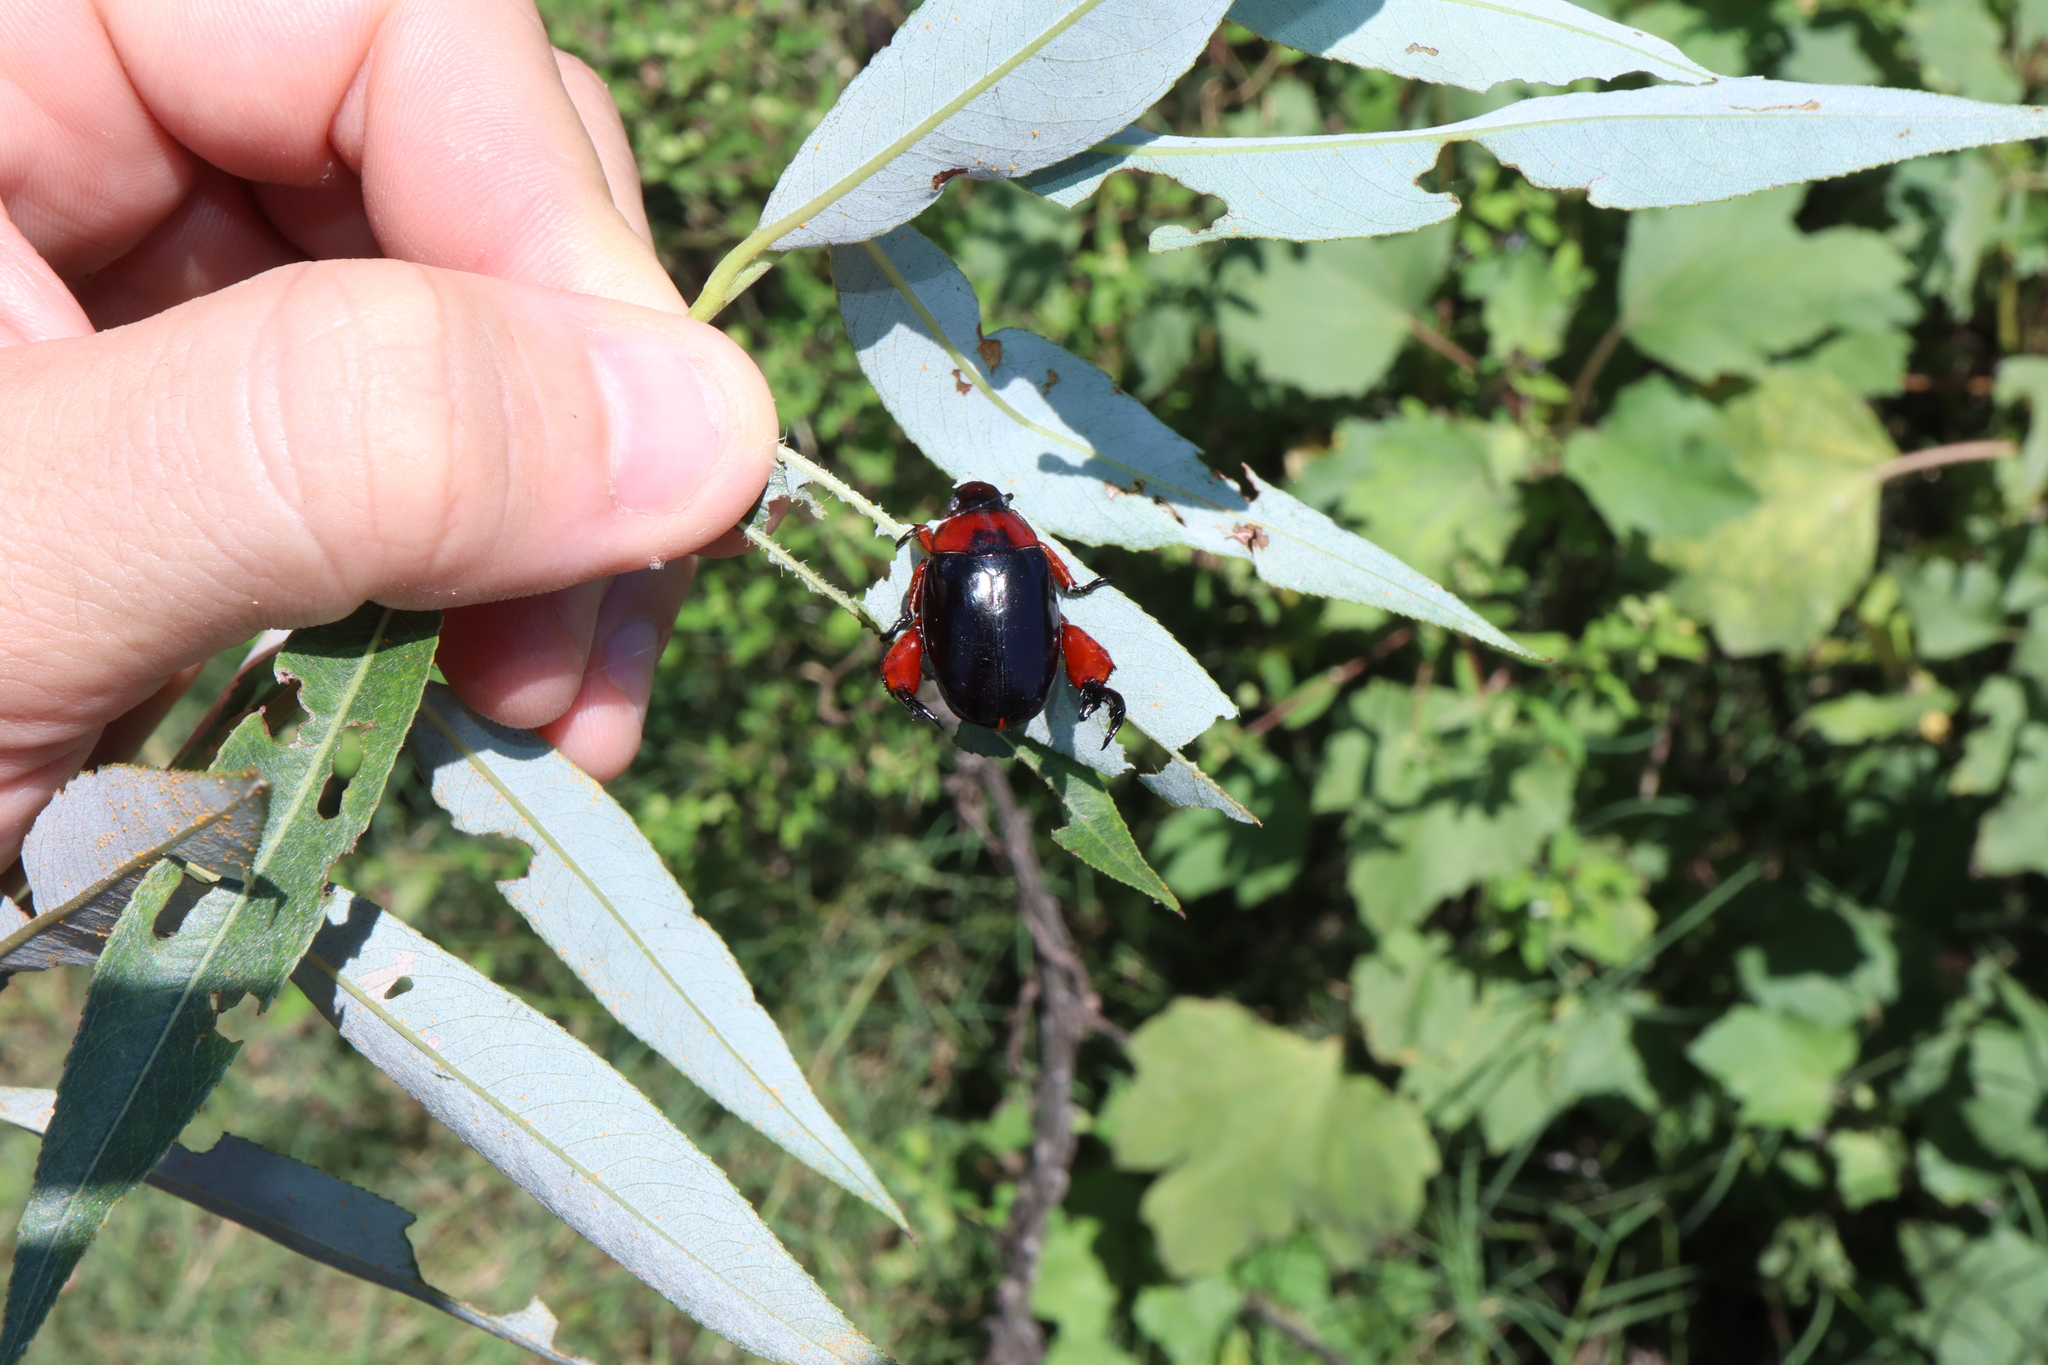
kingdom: Animalia
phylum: Arthropoda
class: Insecta
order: Coleoptera
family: Scarabaeidae
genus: Repsimus
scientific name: Repsimus manicatus
